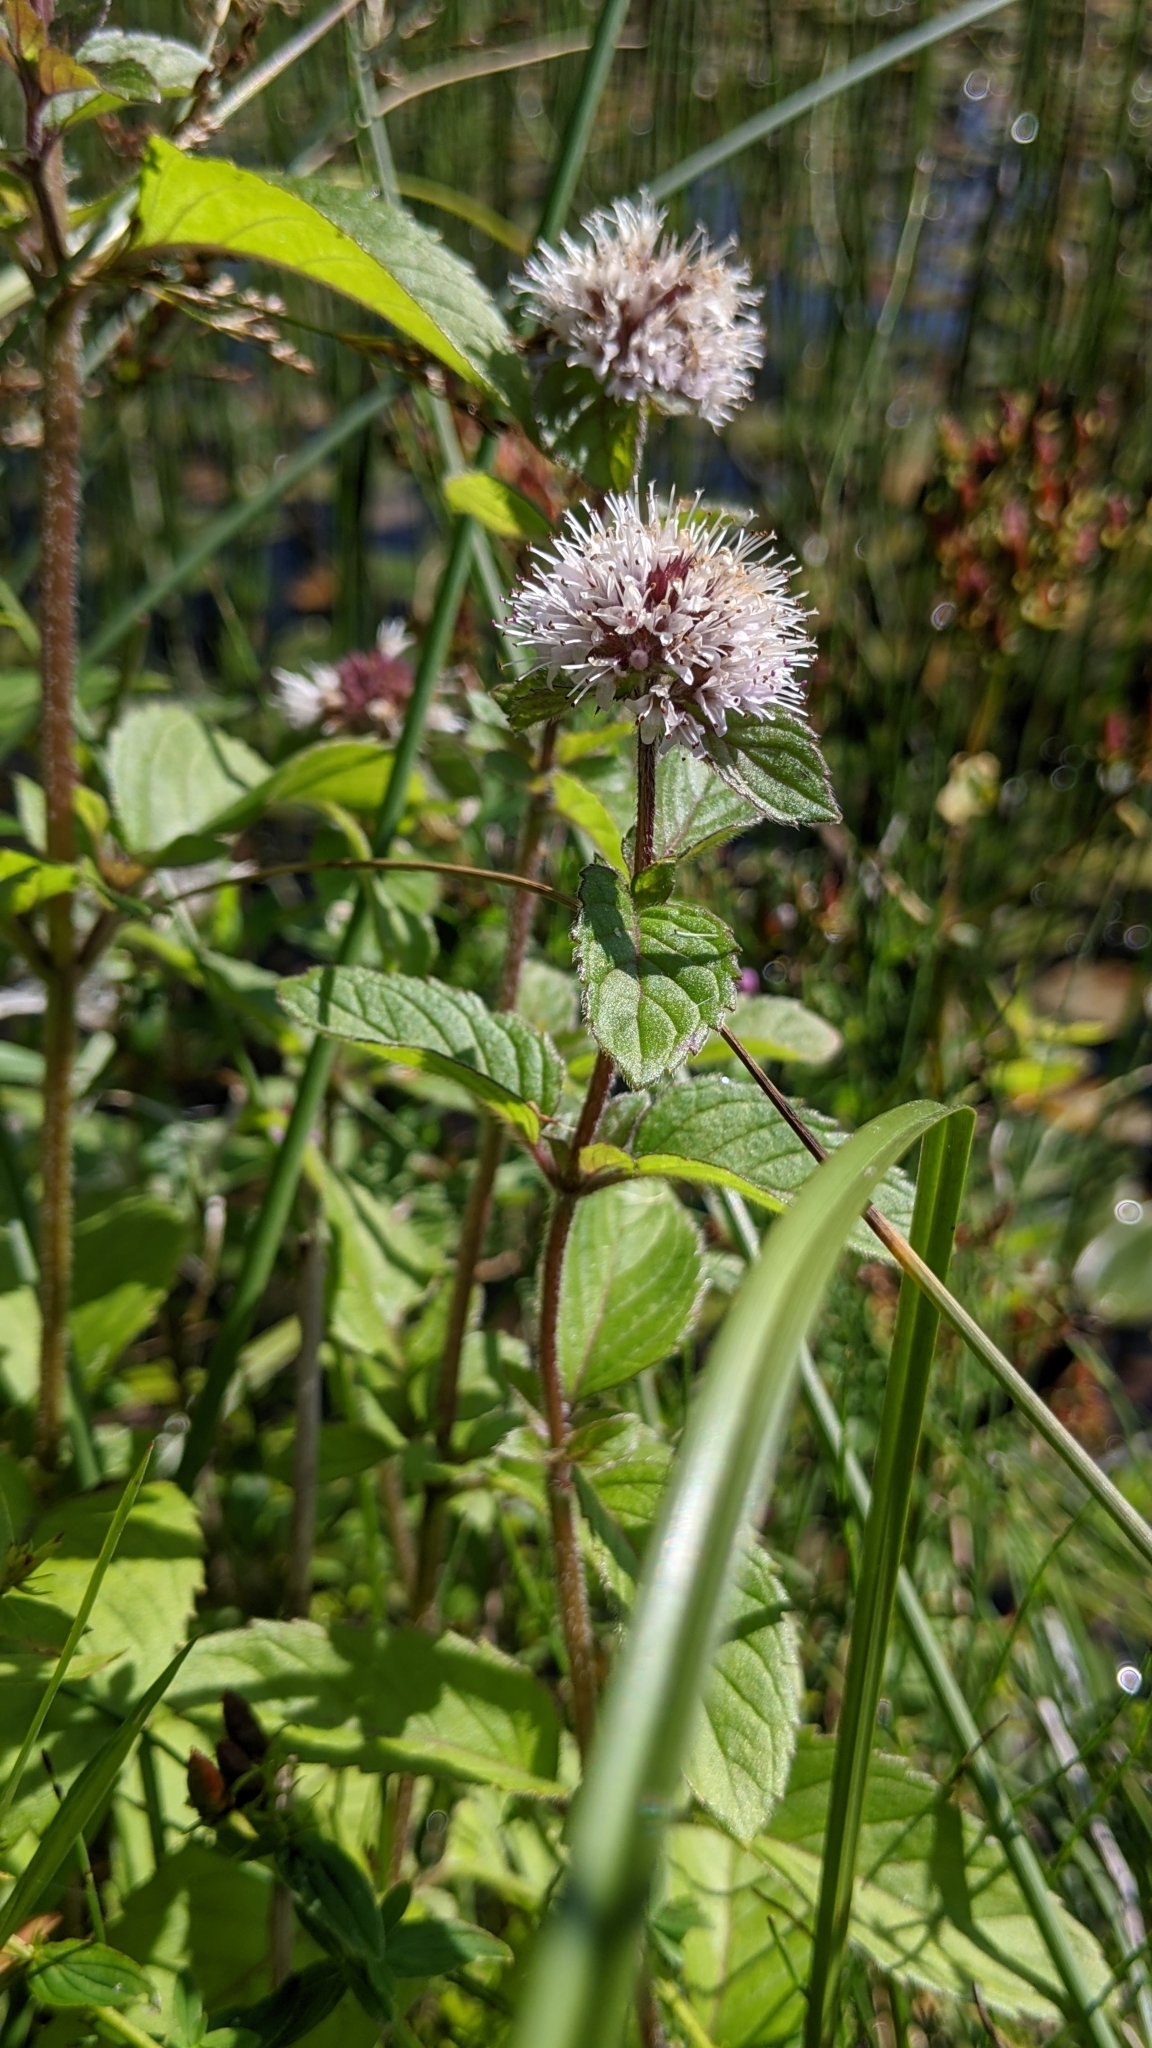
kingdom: Plantae
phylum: Tracheophyta
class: Magnoliopsida
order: Lamiales
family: Lamiaceae
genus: Mentha
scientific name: Mentha aquatica
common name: Water mint
